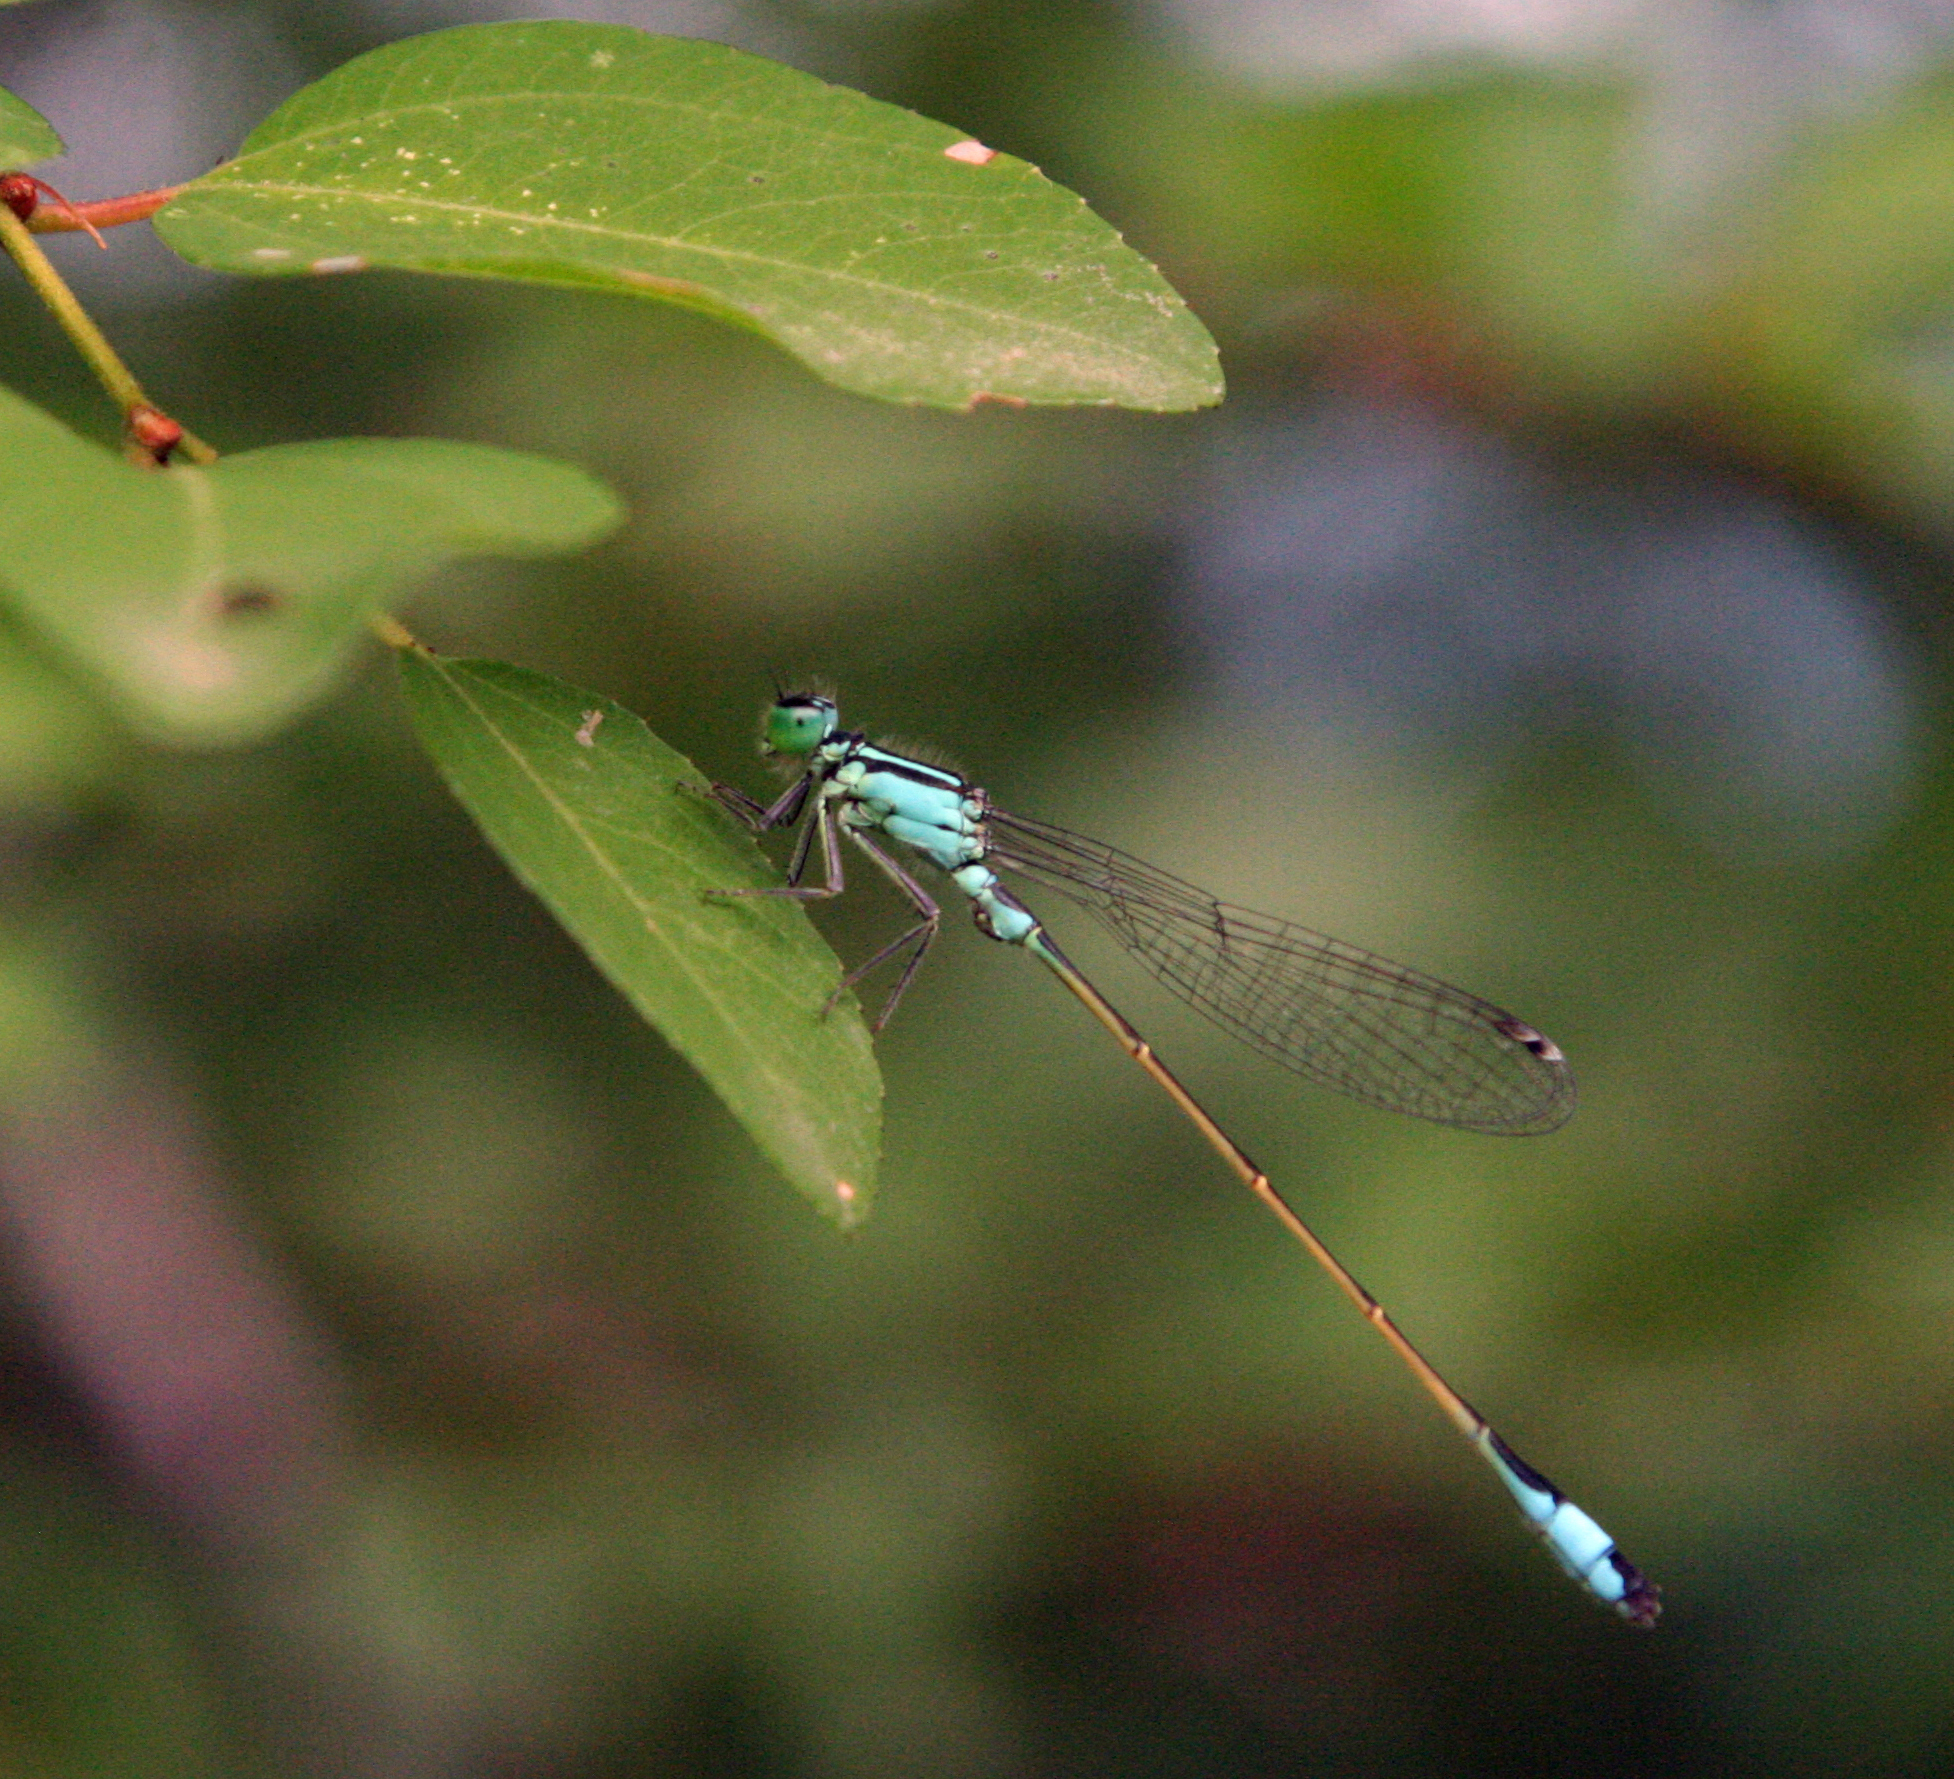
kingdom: Animalia
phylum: Arthropoda
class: Insecta
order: Odonata
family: Coenagrionidae
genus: Ischnura
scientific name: Ischnura elegans
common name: Blue-tailed damselfly
